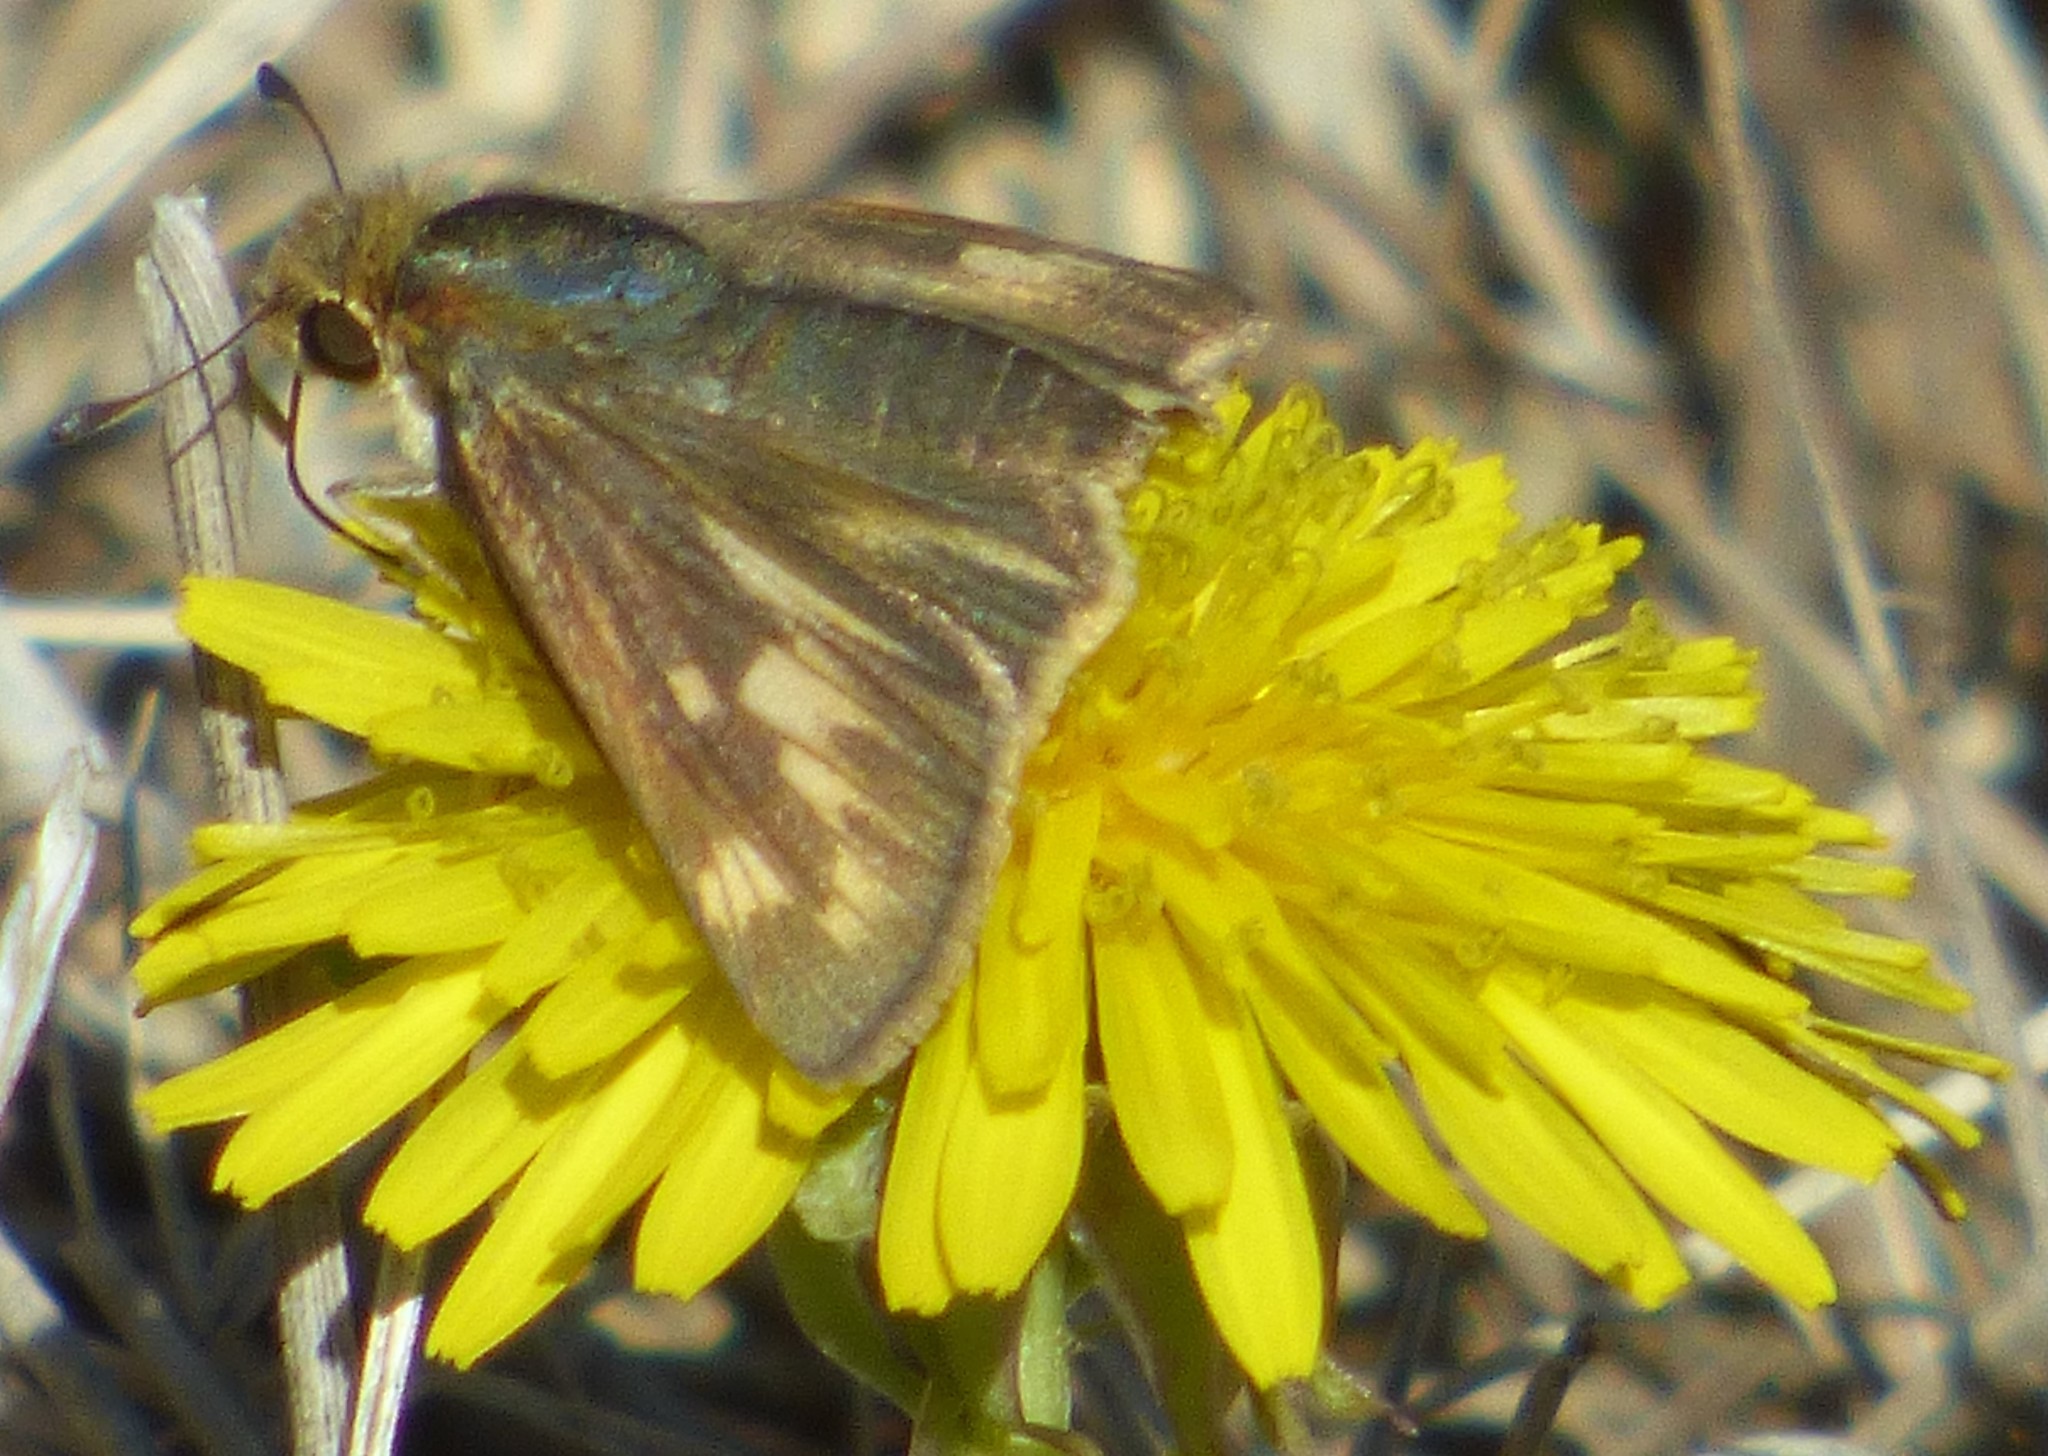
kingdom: Animalia
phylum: Arthropoda
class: Insecta
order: Lepidoptera
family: Hesperiidae
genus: Hylephila
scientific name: Hylephila phyleus
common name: Fiery skipper
